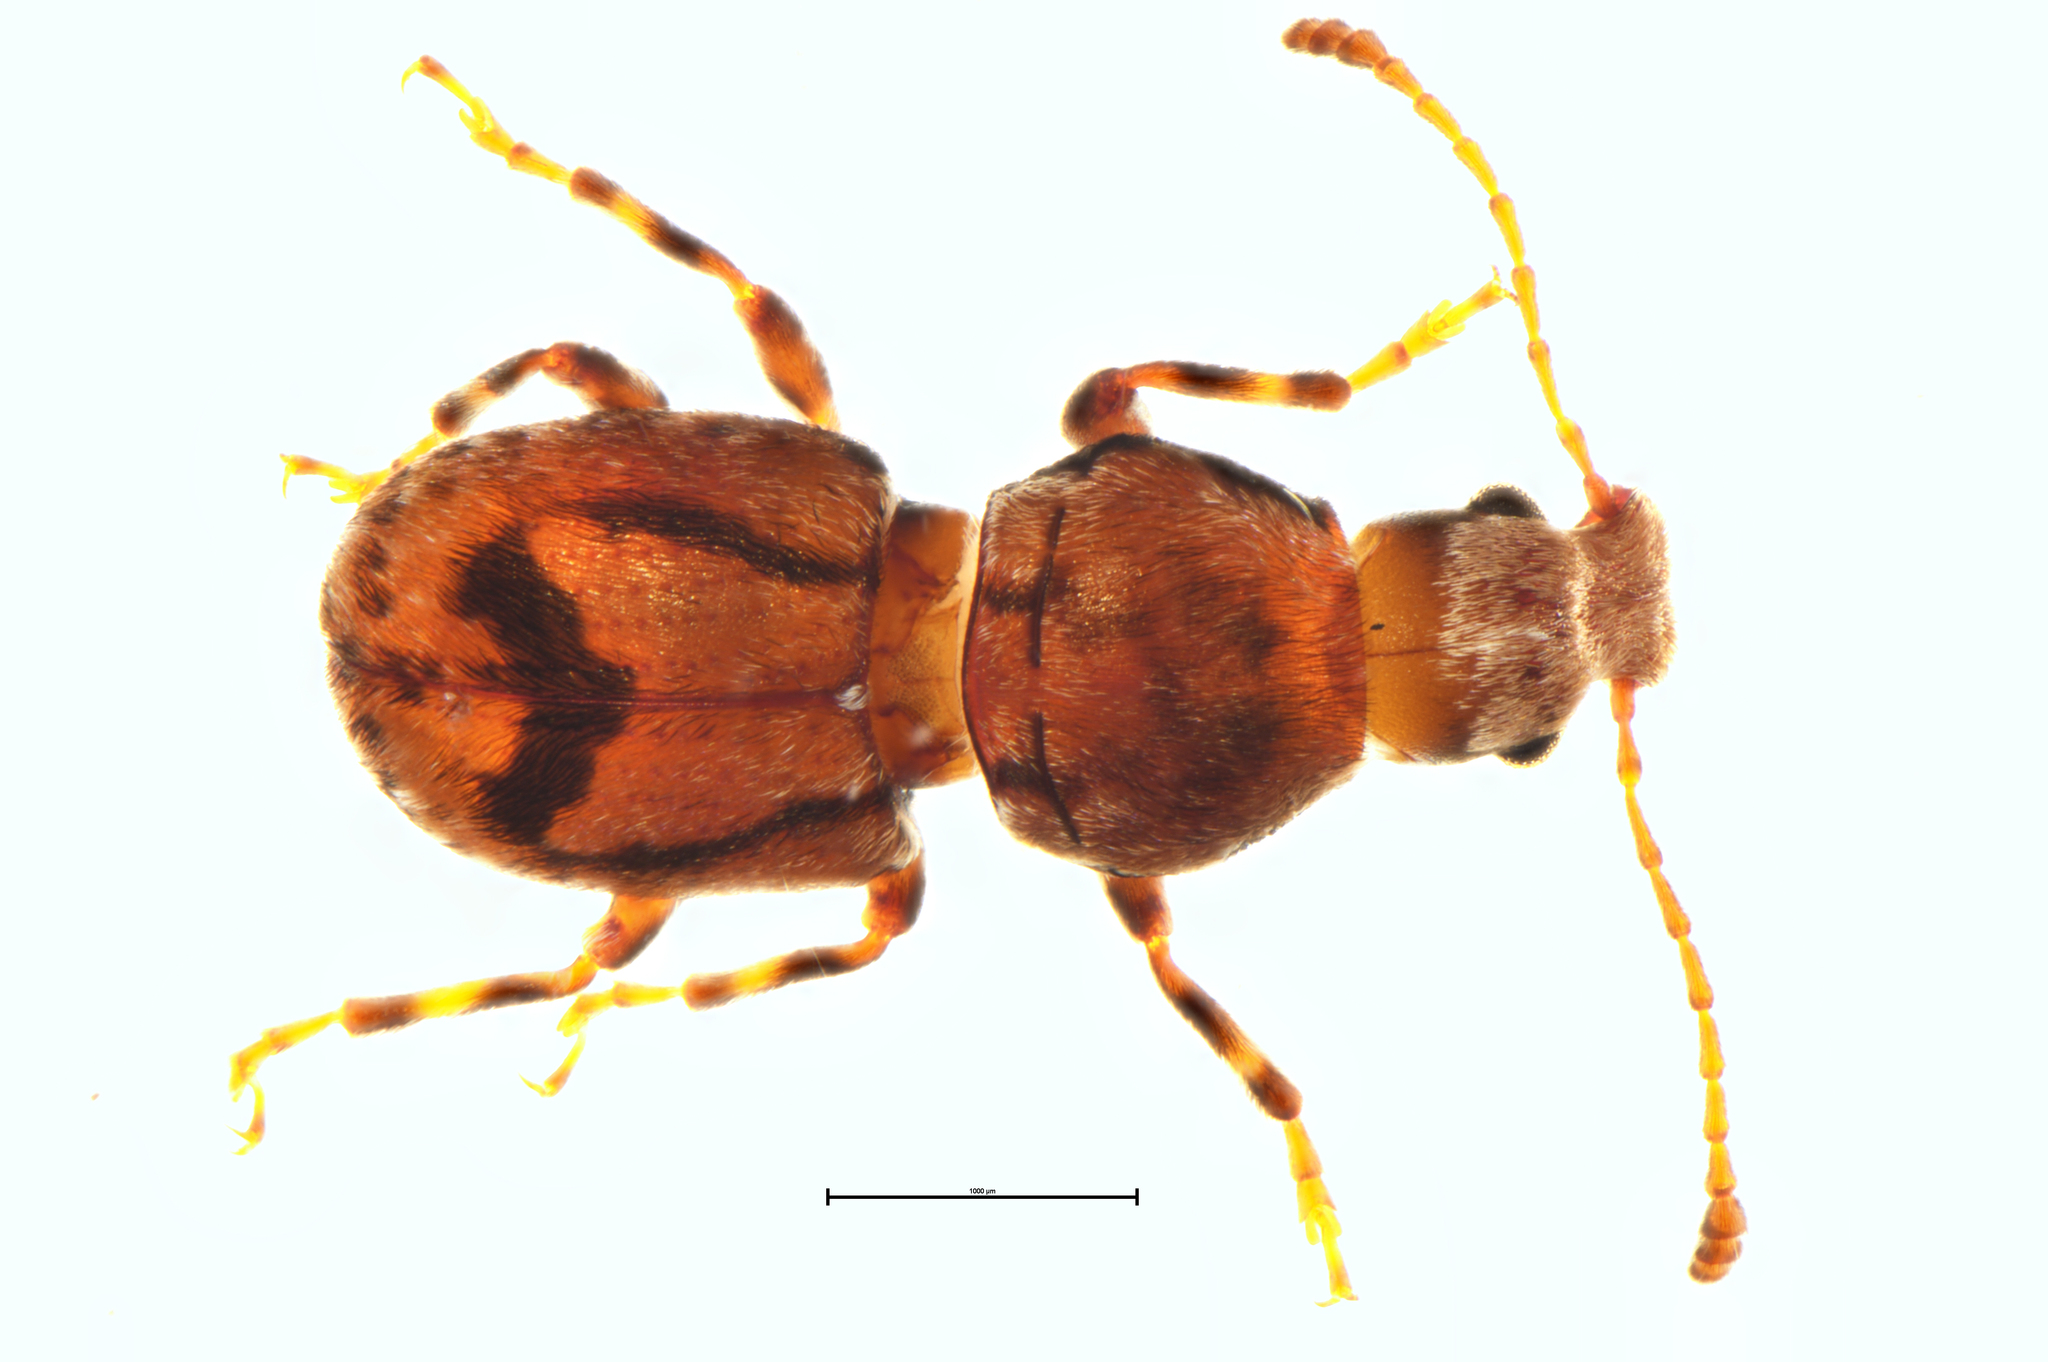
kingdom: Animalia
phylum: Arthropoda
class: Insecta
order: Coleoptera
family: Anthribidae
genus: Sharpius
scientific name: Sharpius
